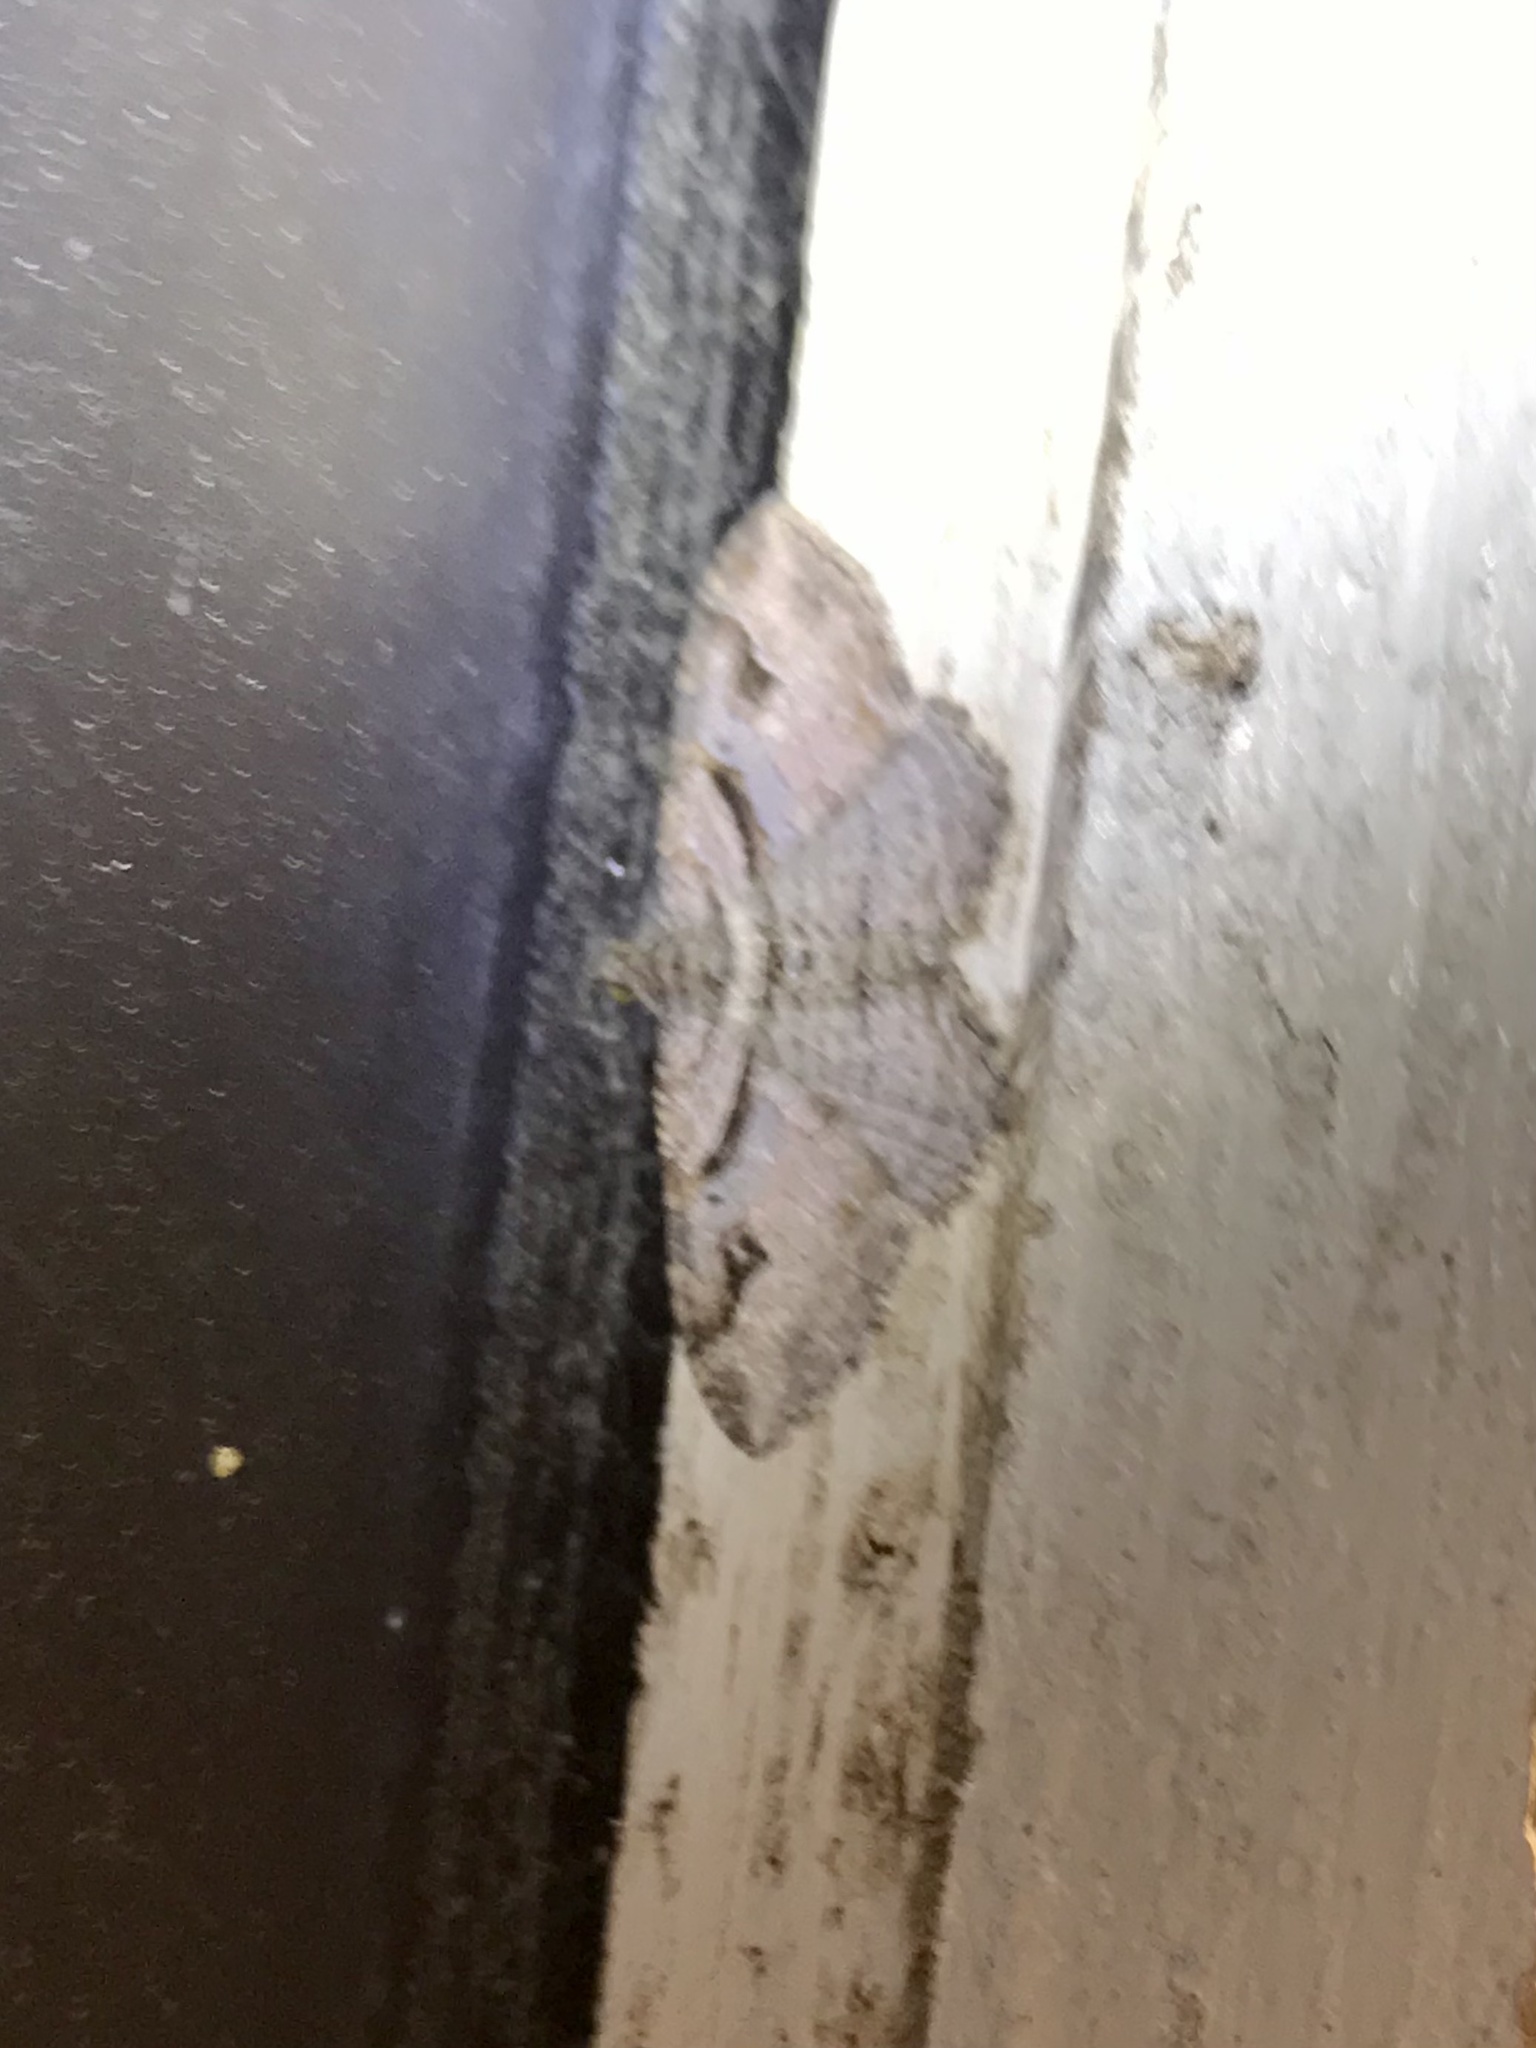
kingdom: Animalia
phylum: Arthropoda
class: Insecta
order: Lepidoptera
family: Geometridae
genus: Costaconvexa
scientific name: Costaconvexa centrostrigaria
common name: Bent-line carpet
